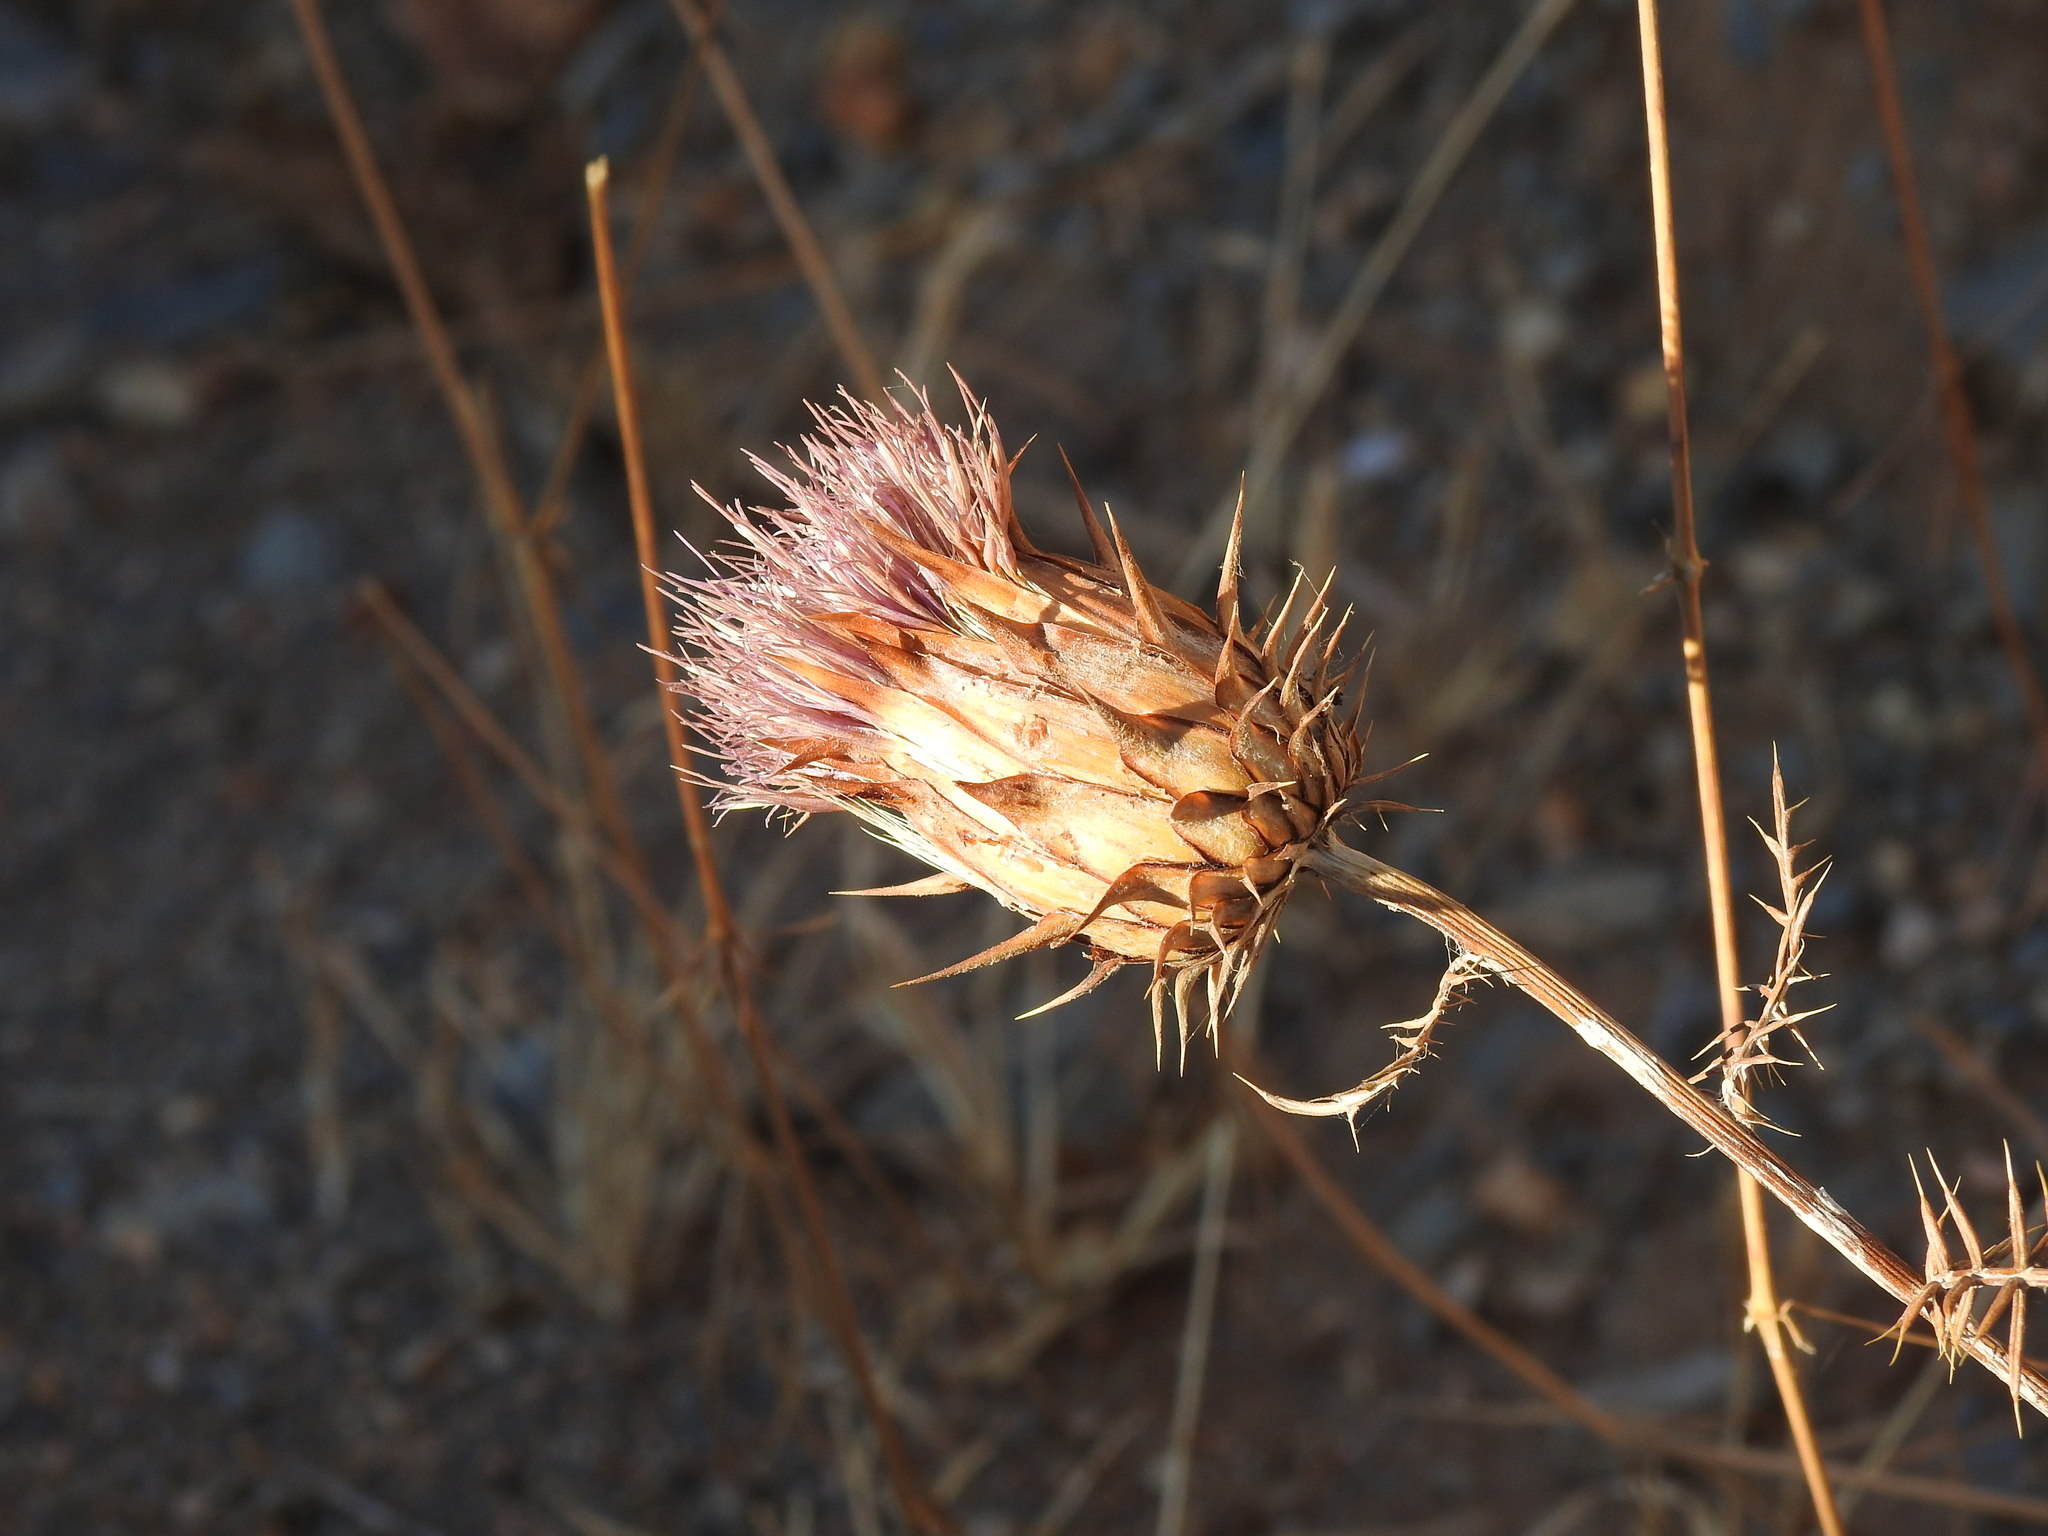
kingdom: Plantae
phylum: Tracheophyta
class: Magnoliopsida
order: Asterales
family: Asteraceae
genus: Cynara
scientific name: Cynara humilis
